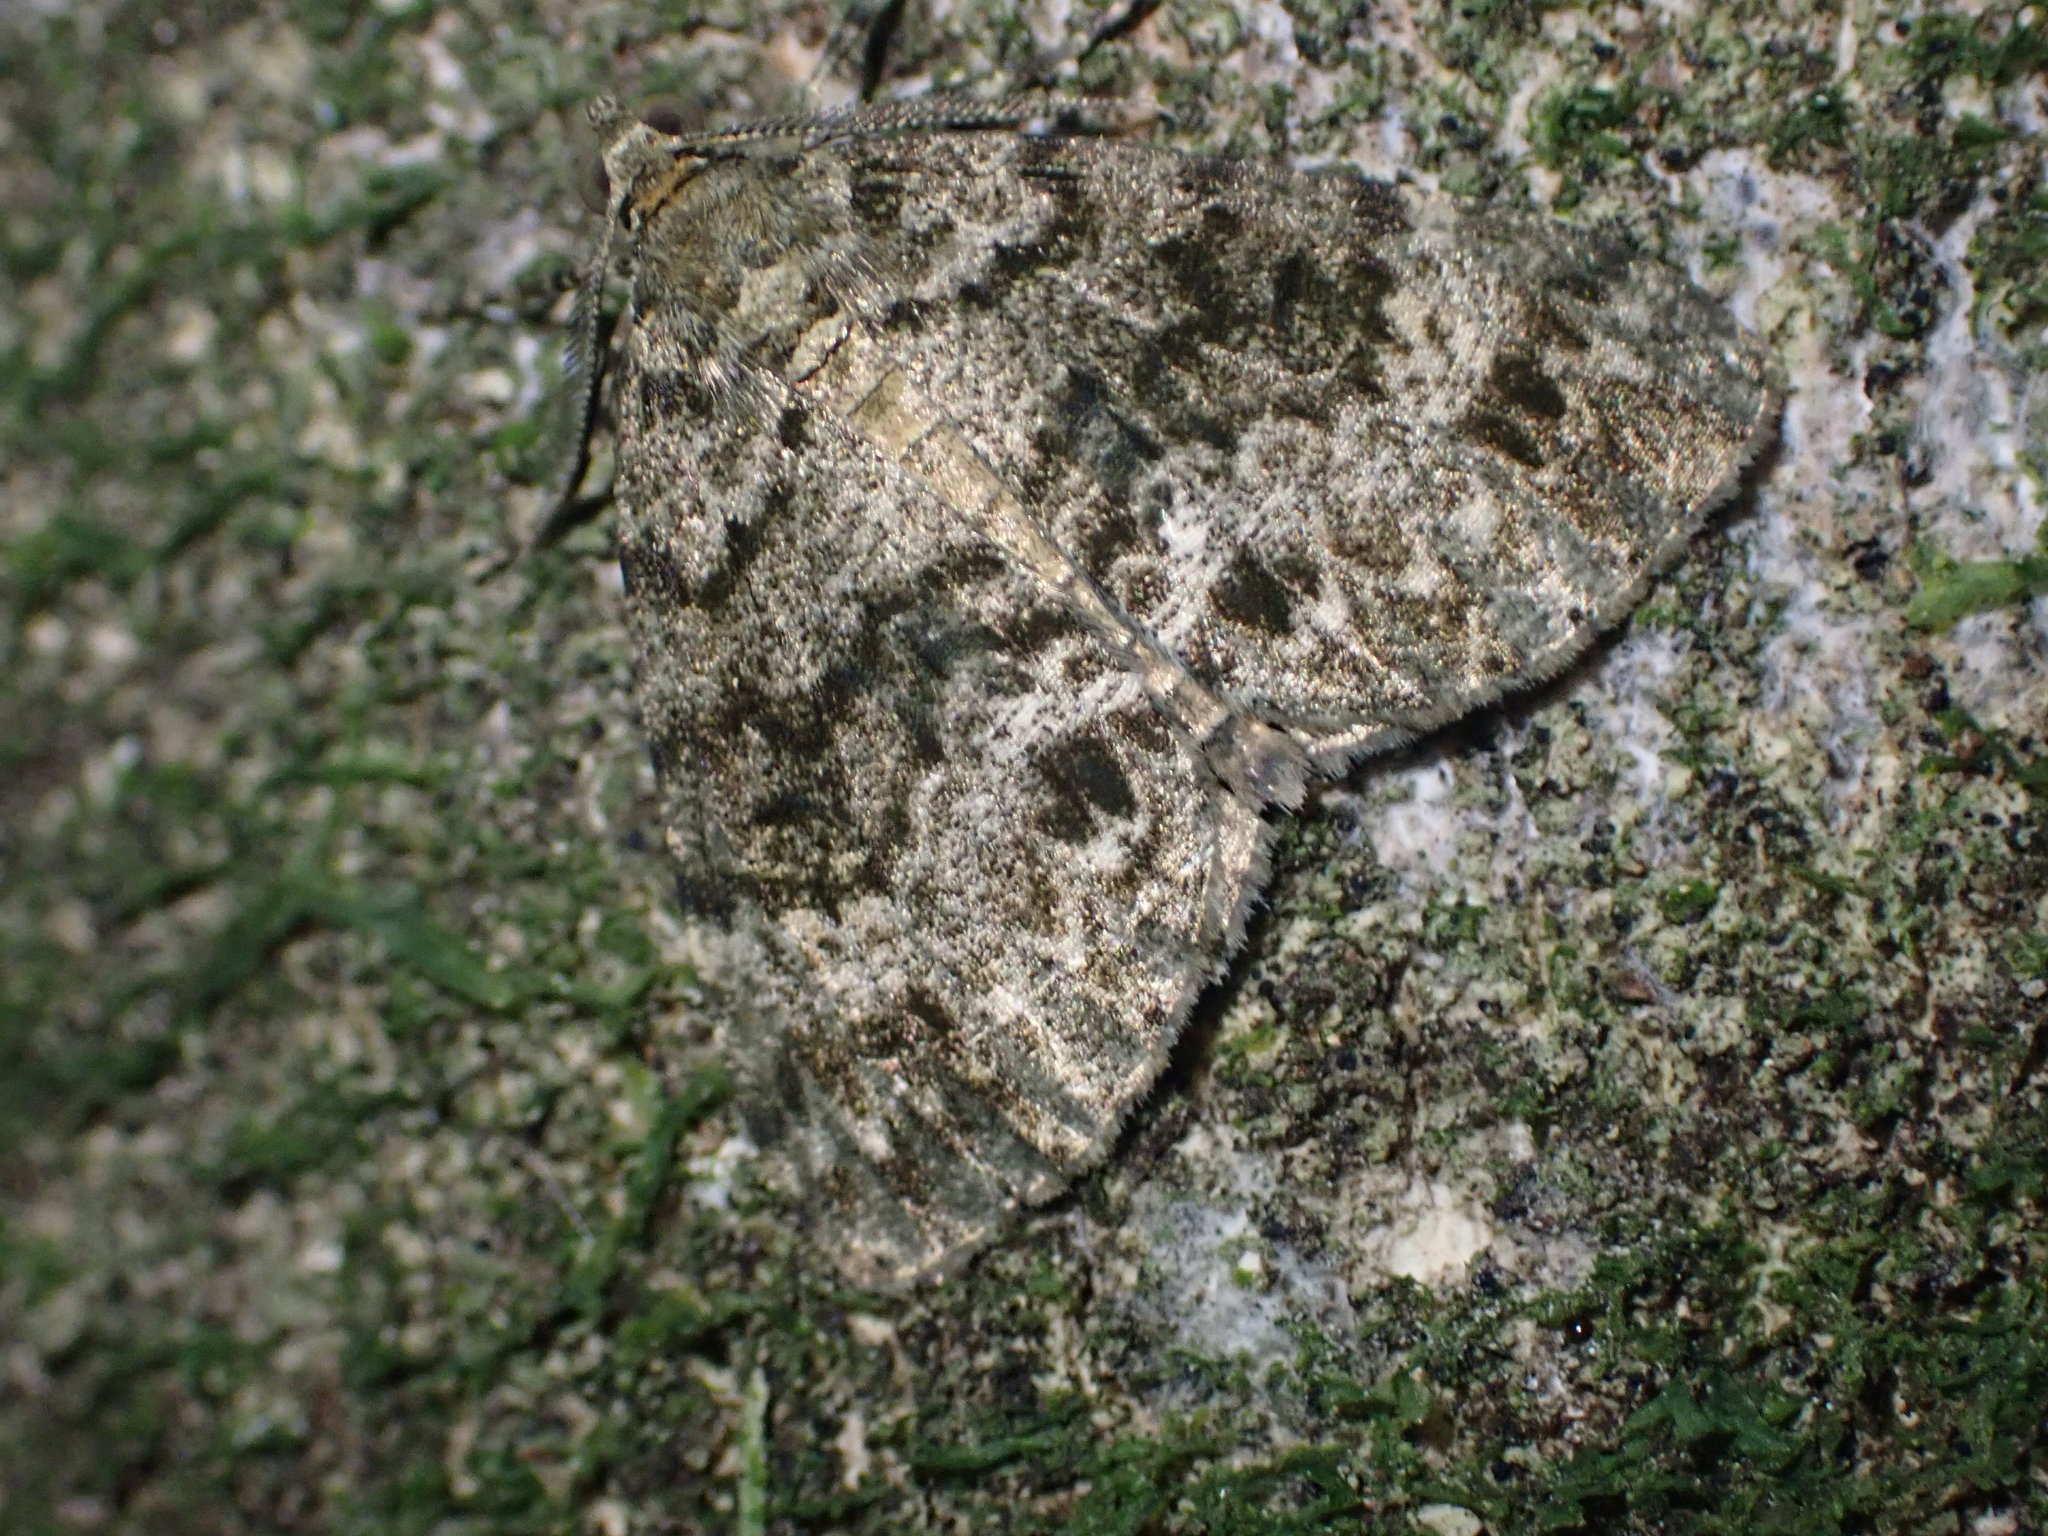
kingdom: Animalia
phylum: Arthropoda
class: Insecta
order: Lepidoptera
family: Geometridae
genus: Pseudocoremia
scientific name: Pseudocoremia indistincta
